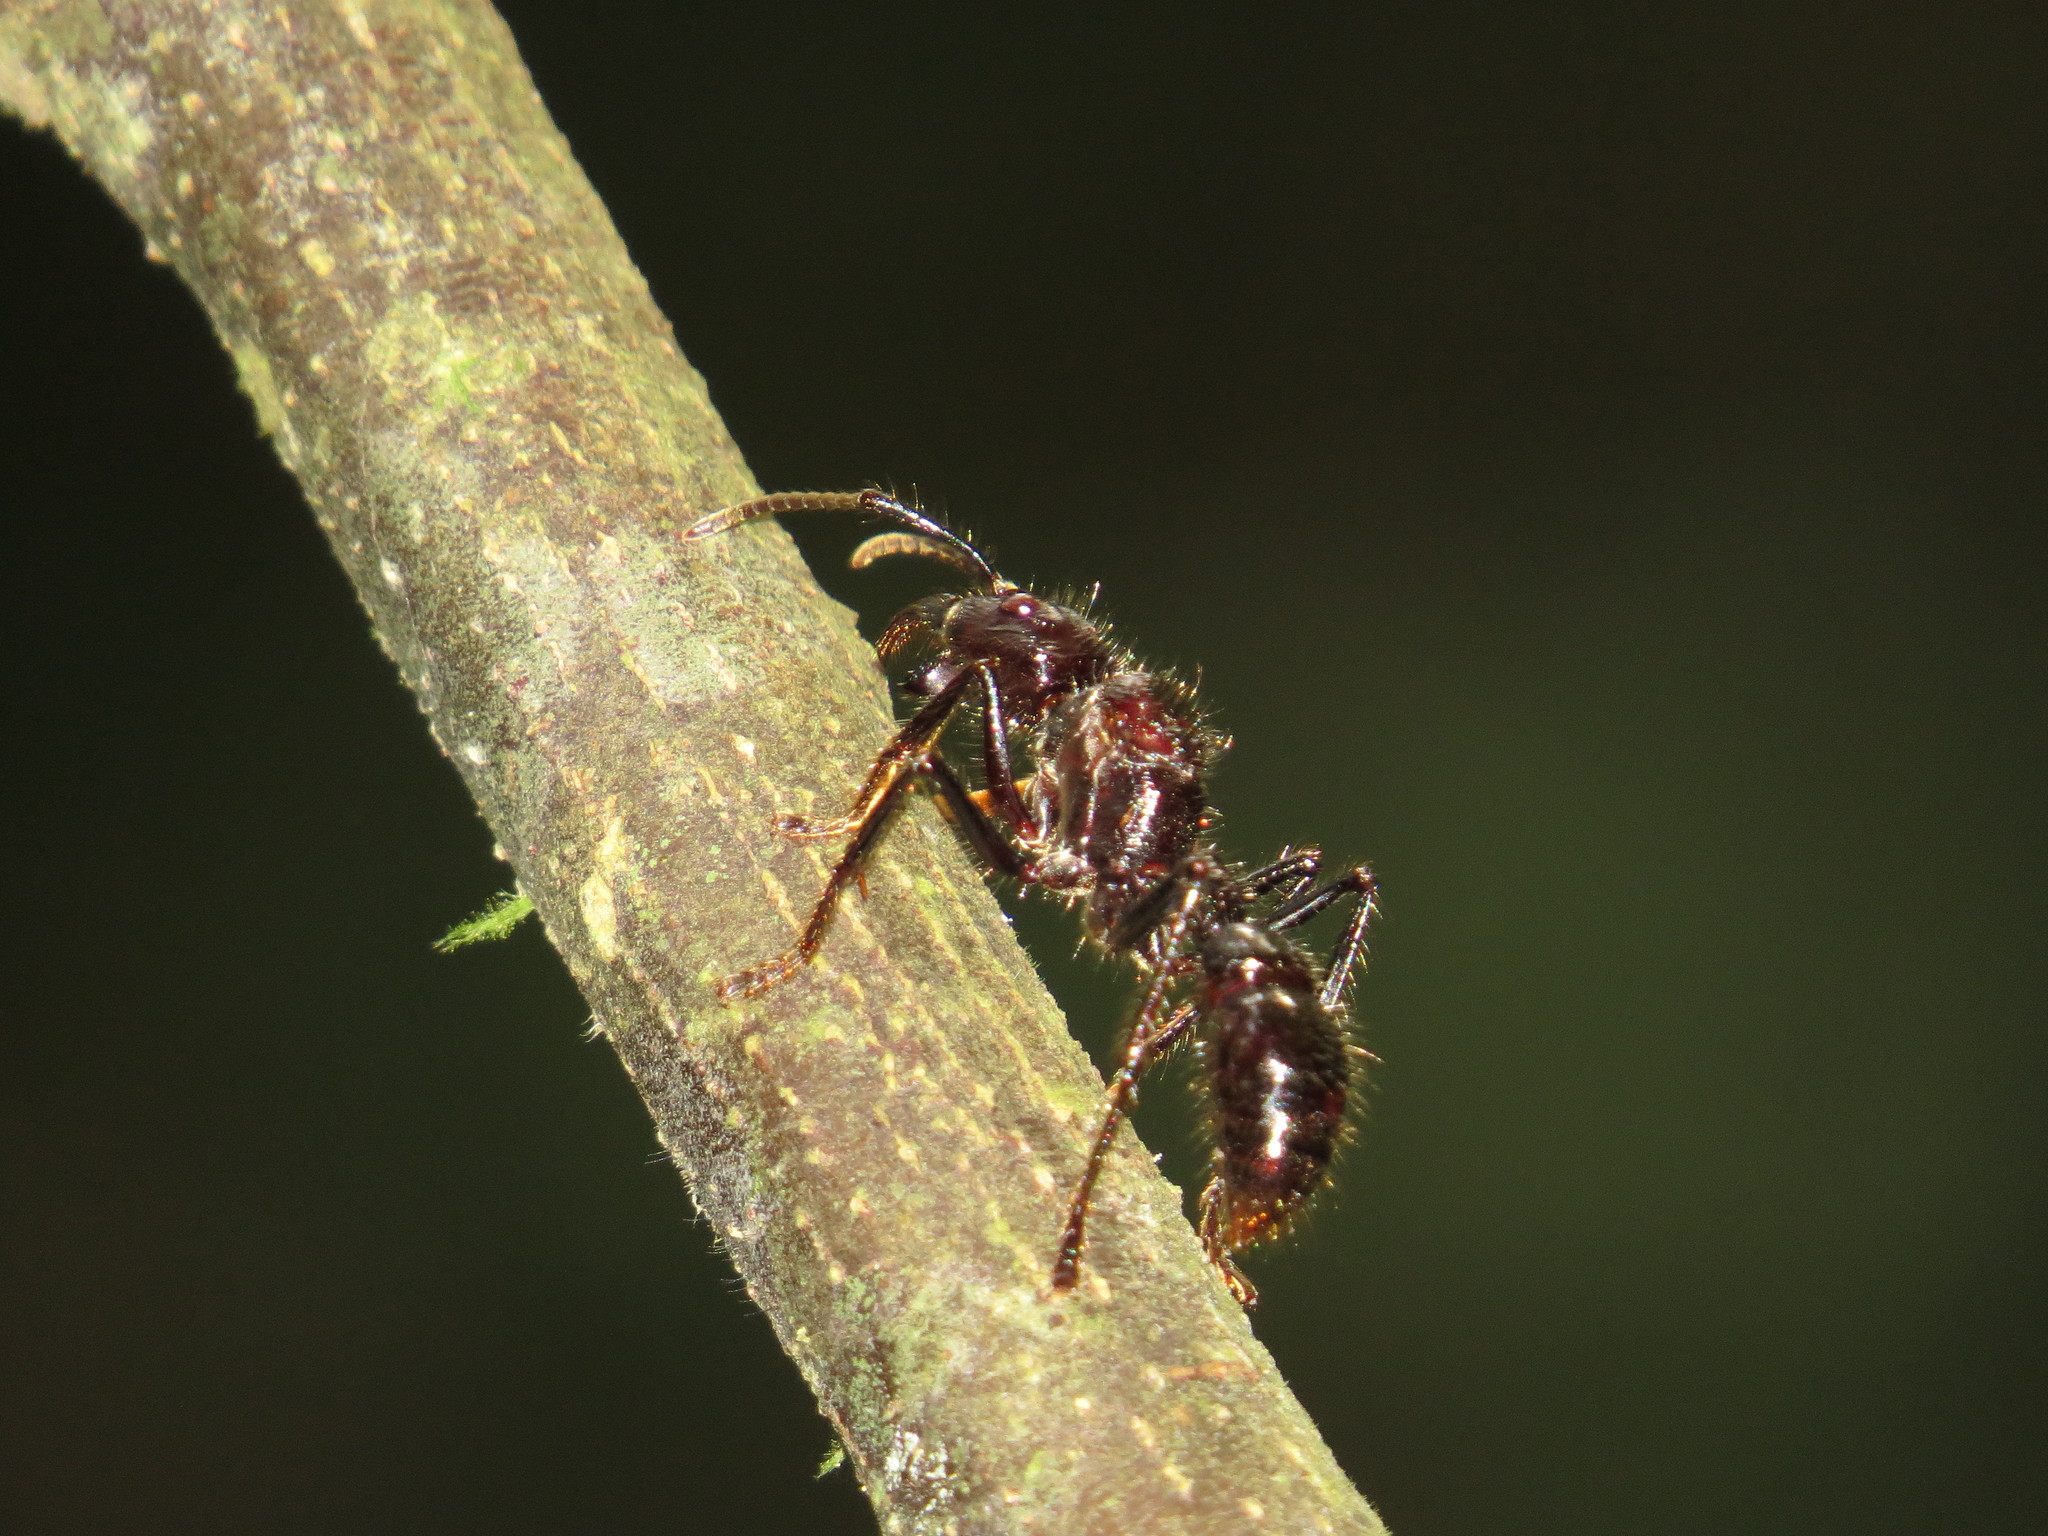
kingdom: Animalia
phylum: Arthropoda
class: Insecta
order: Hymenoptera
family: Formicidae
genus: Paraponera
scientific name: Paraponera clavata
